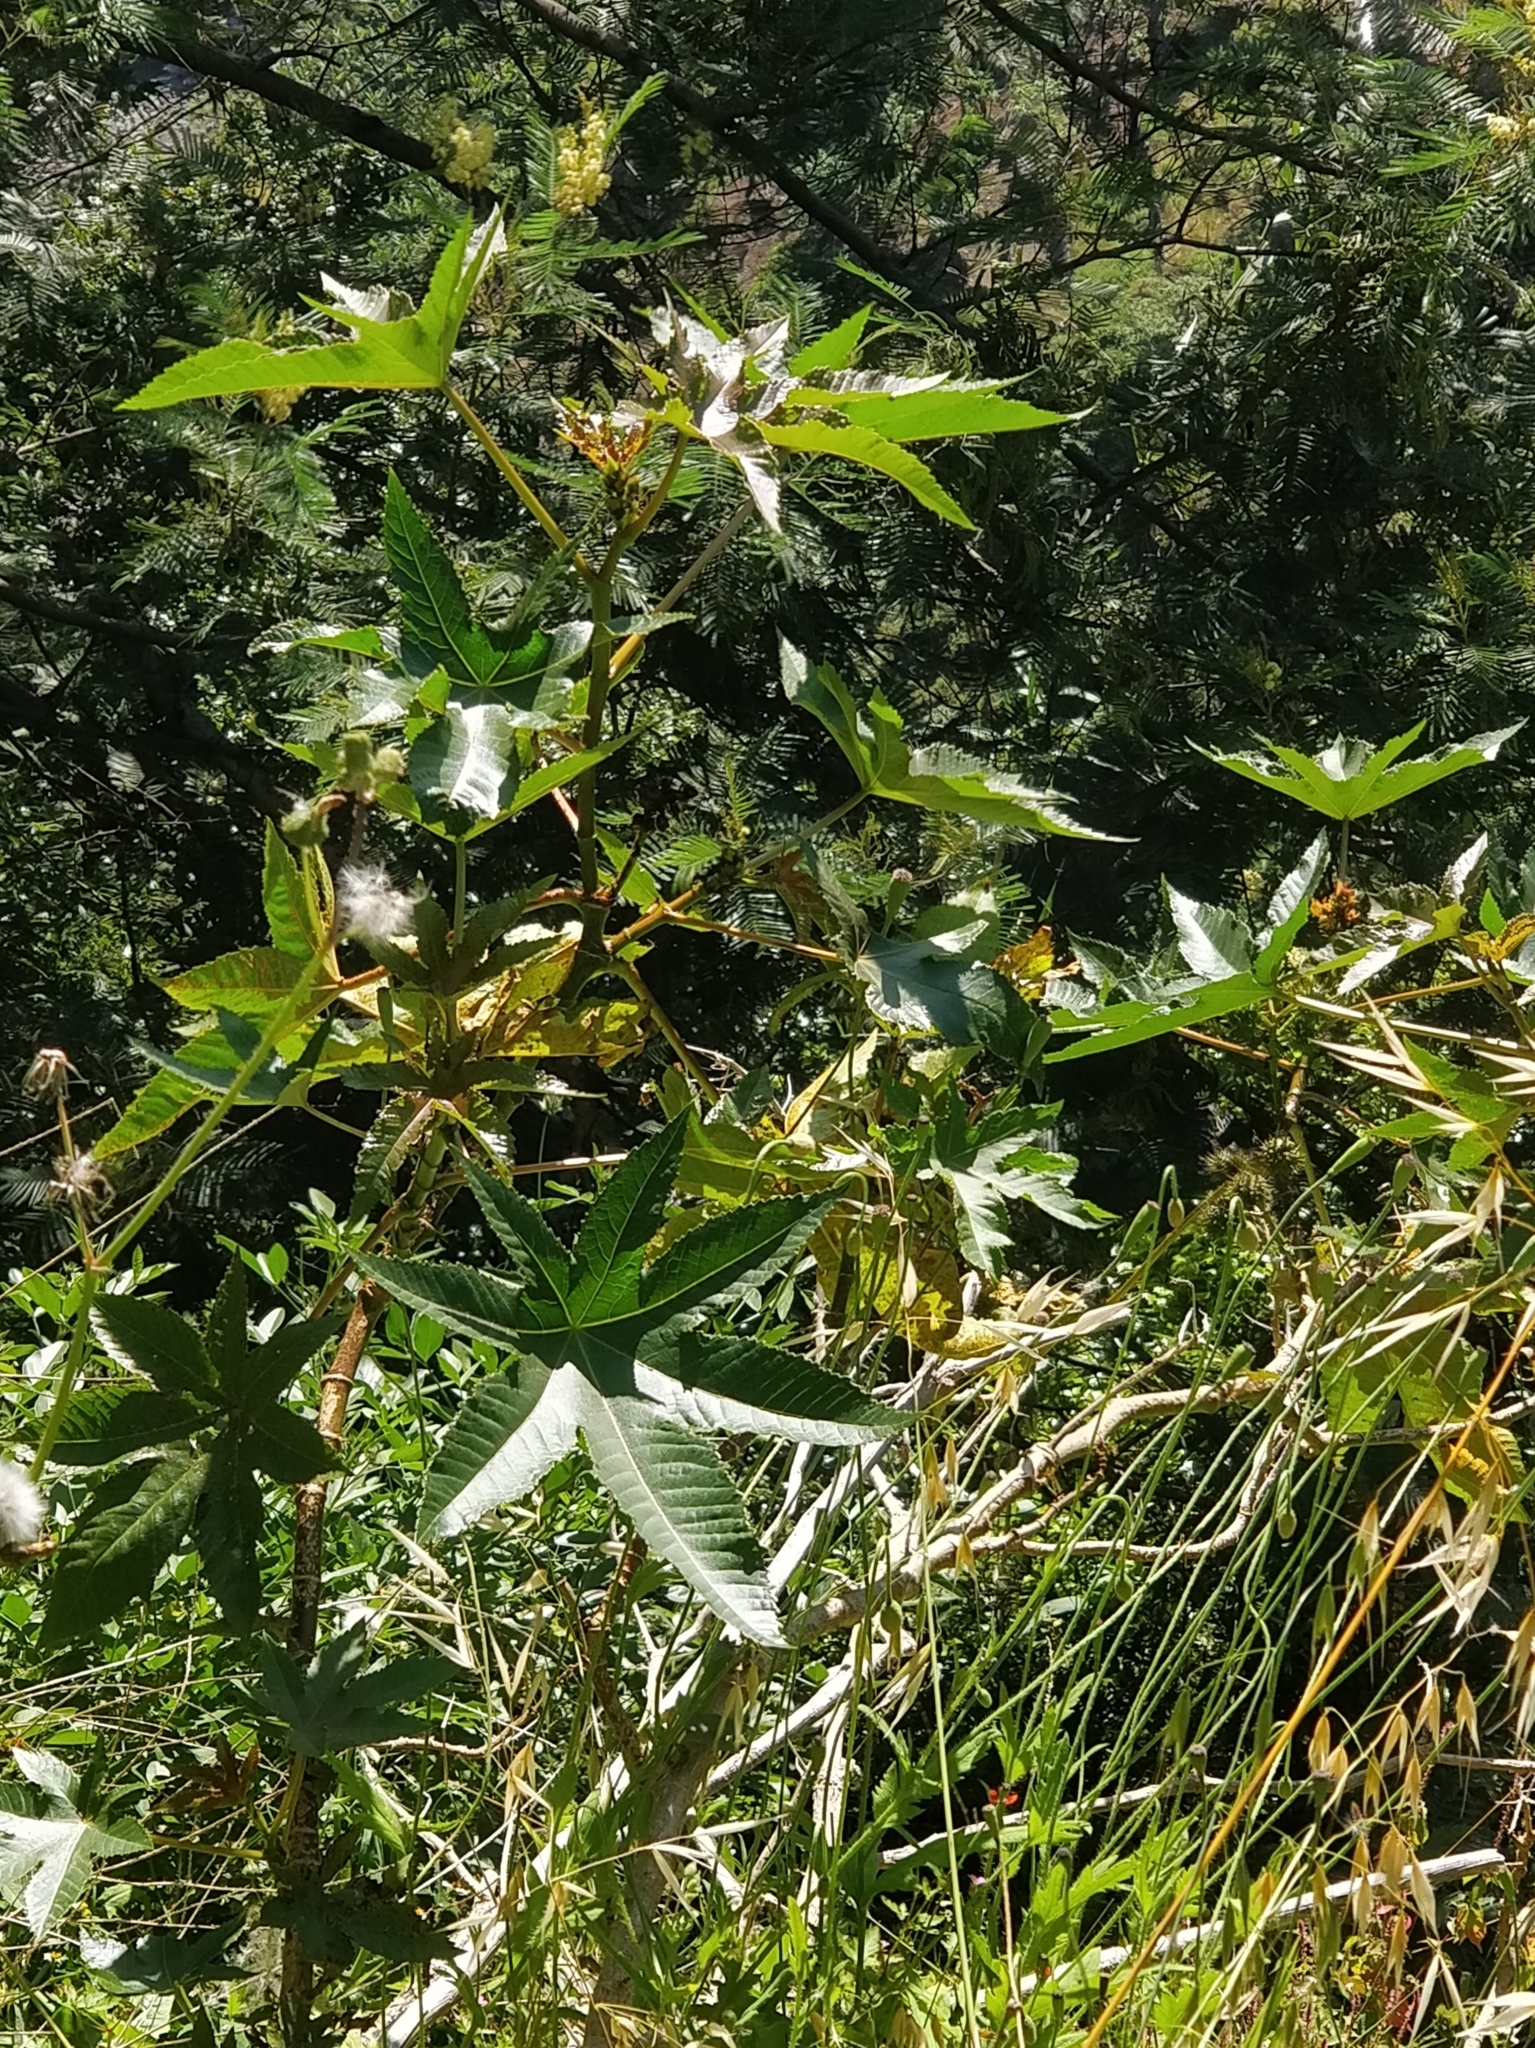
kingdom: Plantae
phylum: Tracheophyta
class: Magnoliopsida
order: Malpighiales
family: Euphorbiaceae
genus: Ricinus
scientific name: Ricinus communis
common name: Castor-oil-plant
